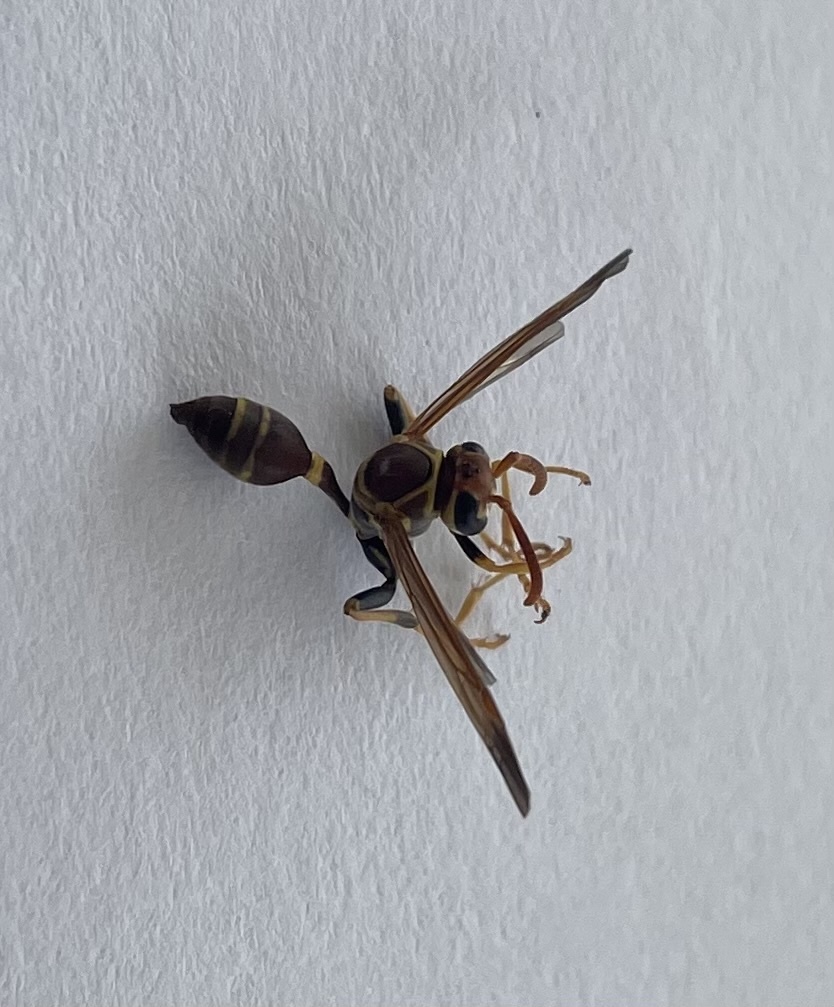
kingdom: Animalia
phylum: Arthropoda
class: Insecta
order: Hymenoptera
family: Vespidae
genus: Mischocyttarus
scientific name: Mischocyttarus mexicanus
